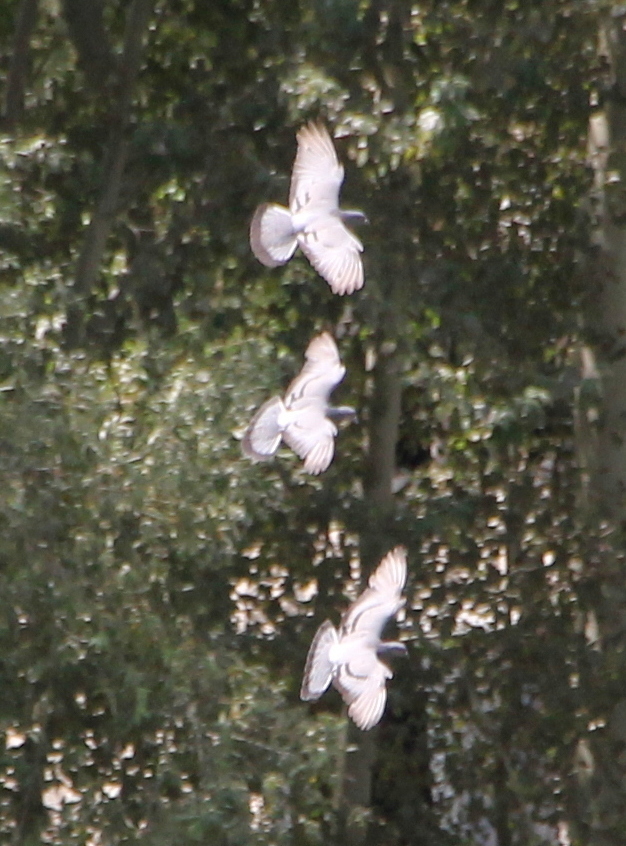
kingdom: Animalia
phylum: Chordata
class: Aves
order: Columbiformes
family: Columbidae
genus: Columba
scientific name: Columba livia
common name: Rock pigeon
